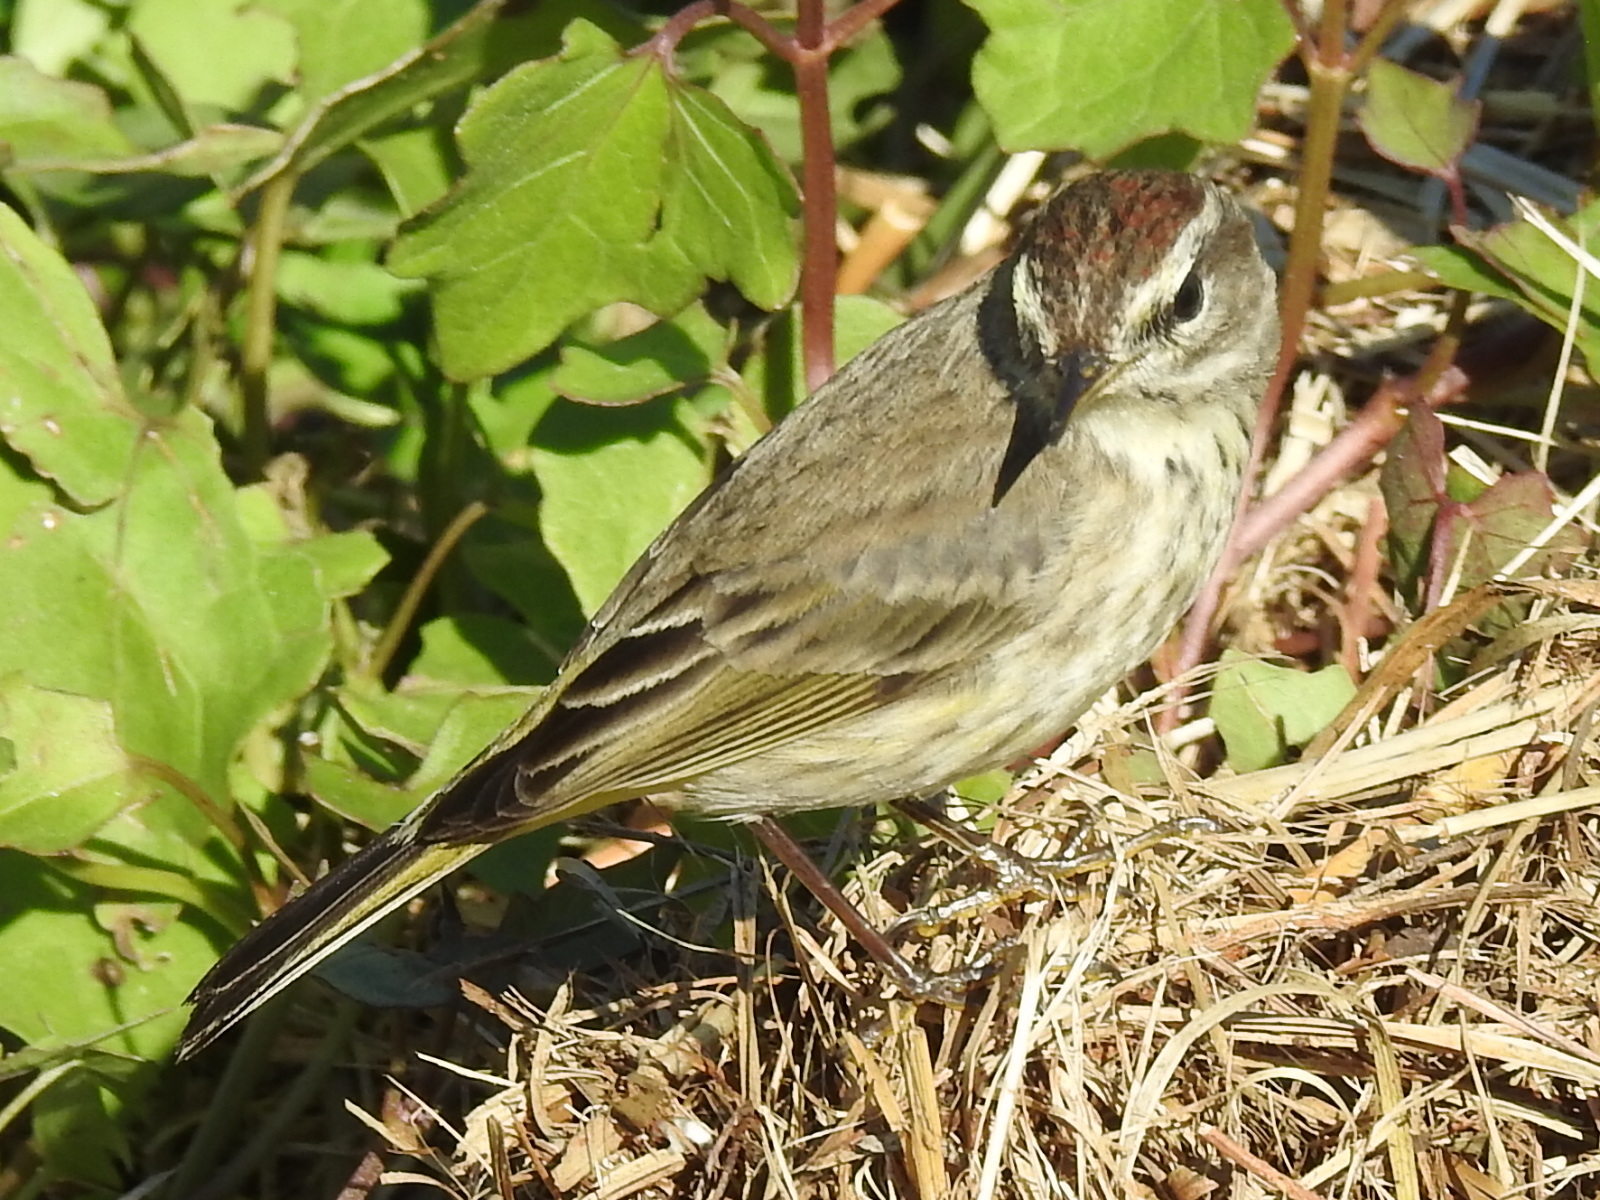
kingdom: Animalia
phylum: Chordata
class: Aves
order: Passeriformes
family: Parulidae
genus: Setophaga
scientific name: Setophaga palmarum
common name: Palm warbler
